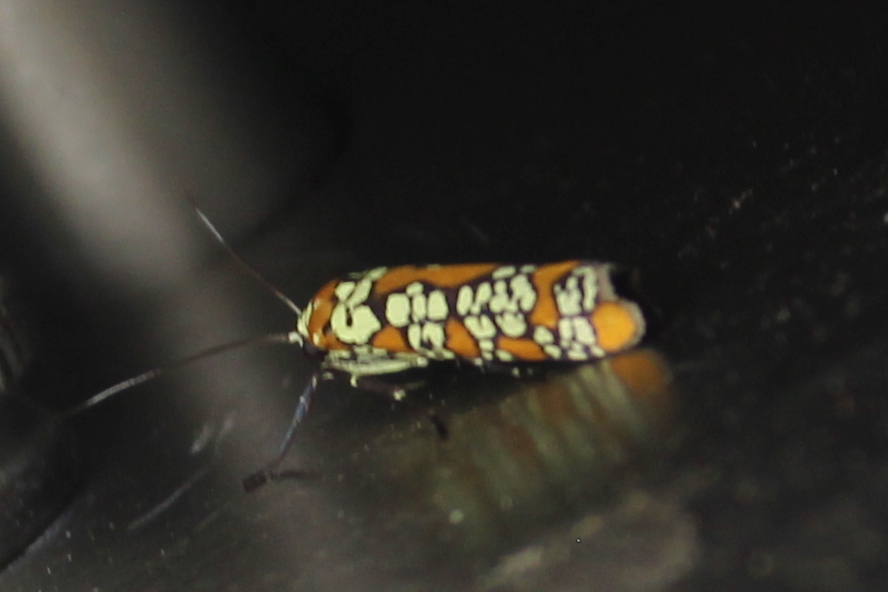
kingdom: Animalia
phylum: Arthropoda
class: Insecta
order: Lepidoptera
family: Attevidae
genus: Atteva
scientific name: Atteva punctella
